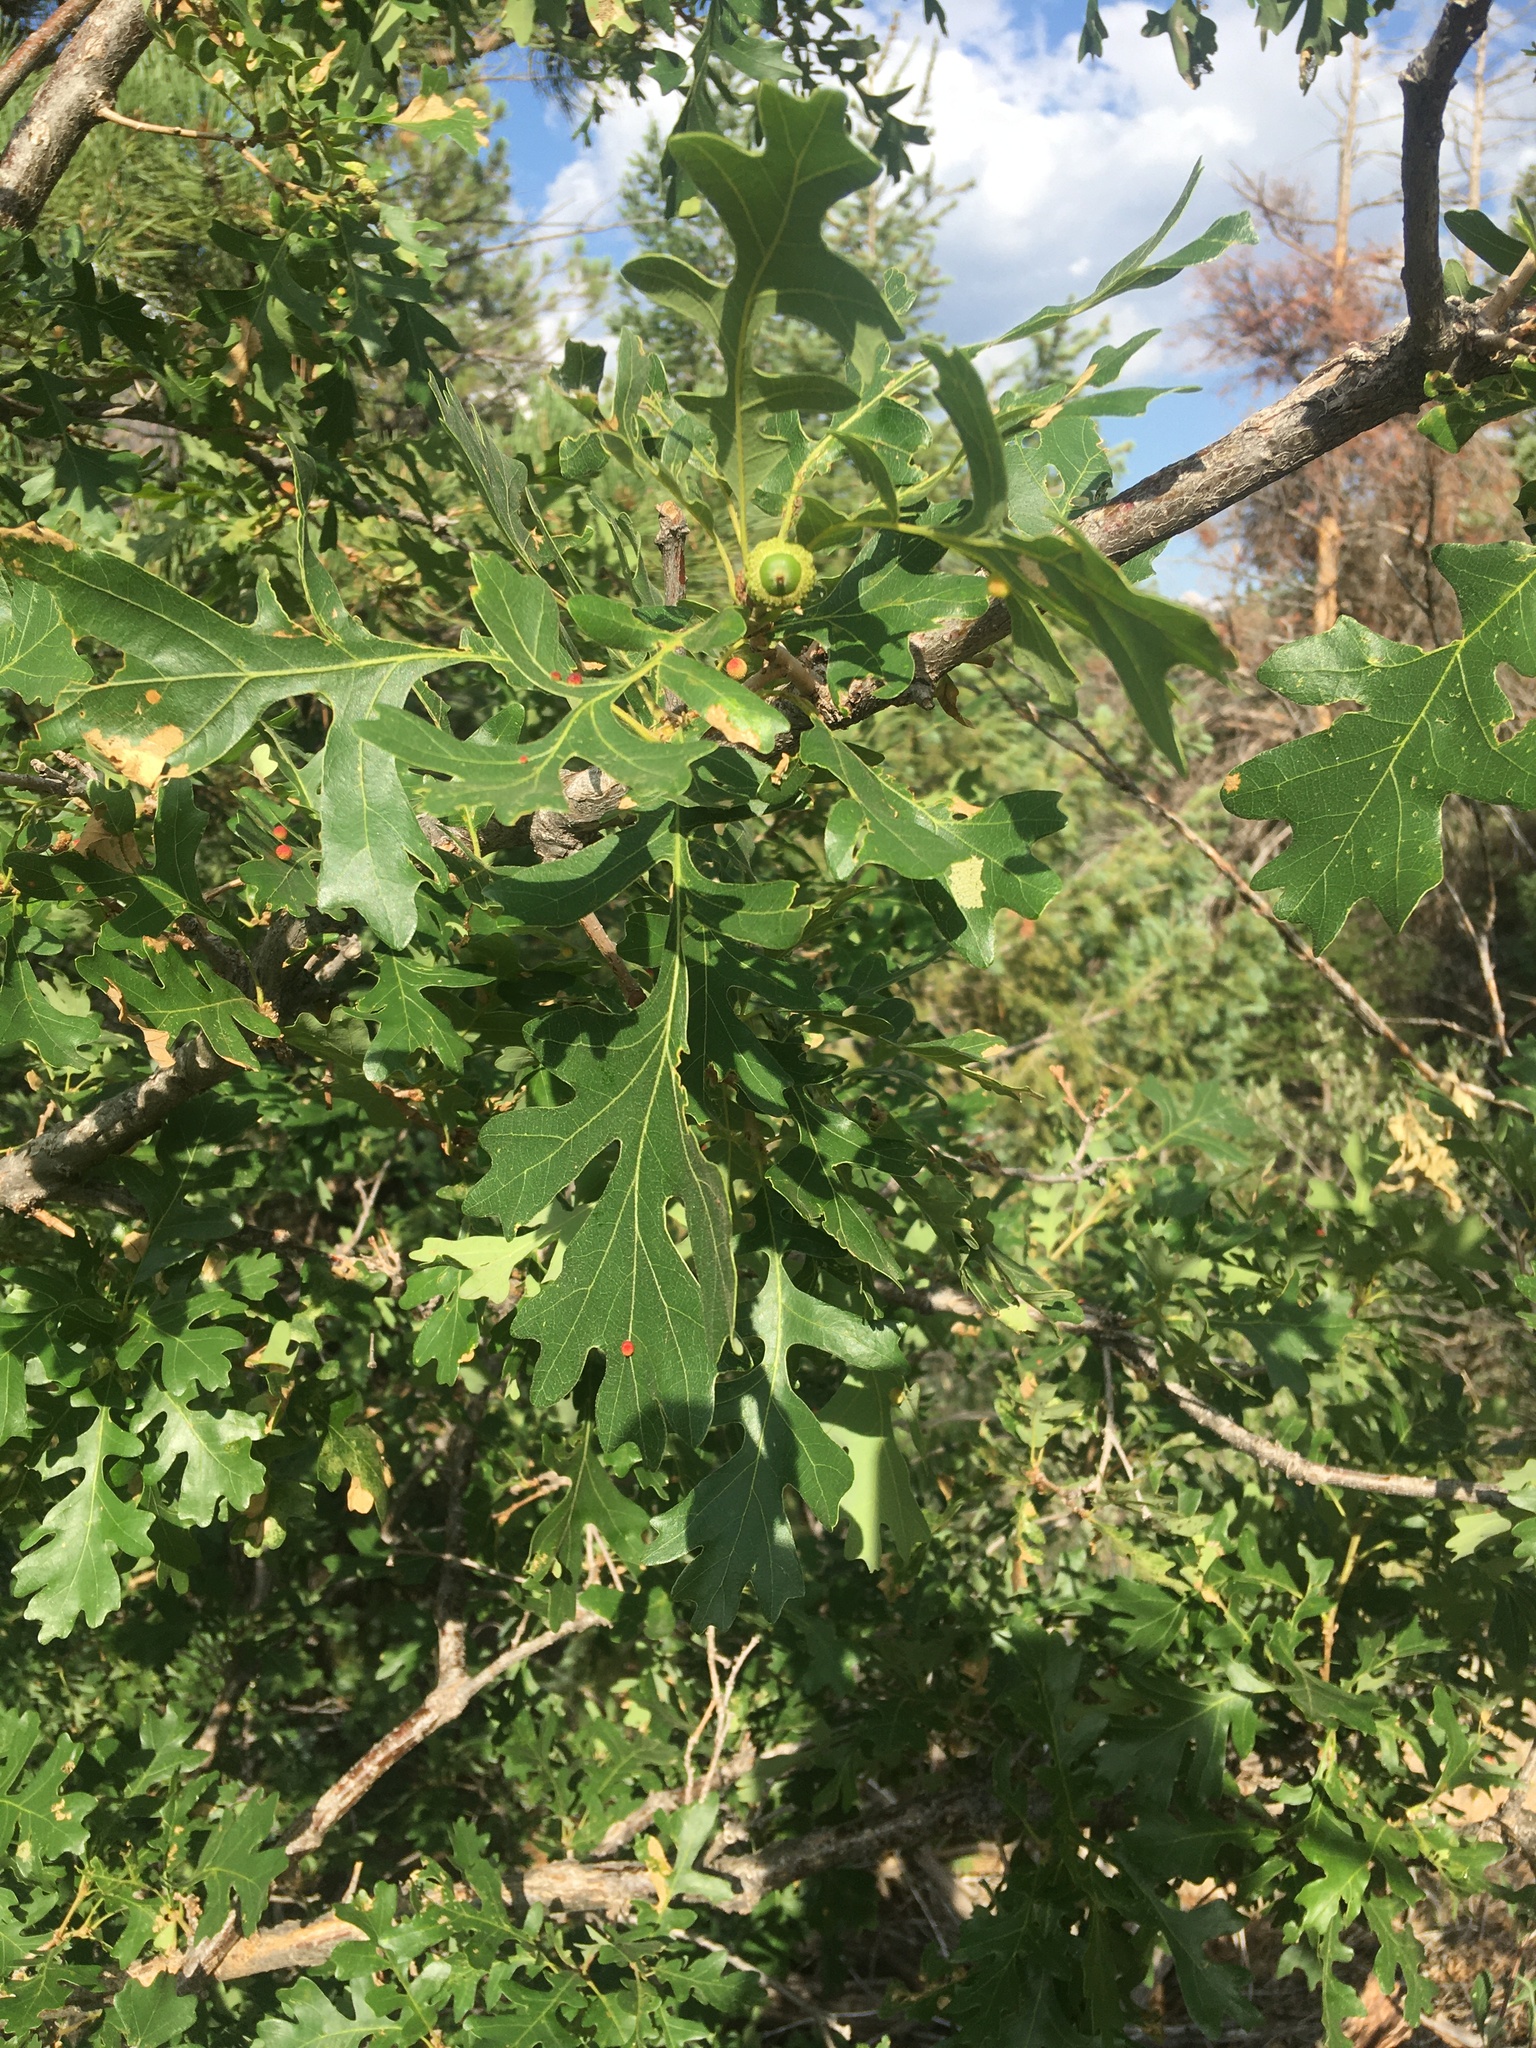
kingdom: Plantae
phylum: Tracheophyta
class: Magnoliopsida
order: Fagales
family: Fagaceae
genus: Quercus
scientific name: Quercus macrocarpa
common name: Bur oak
